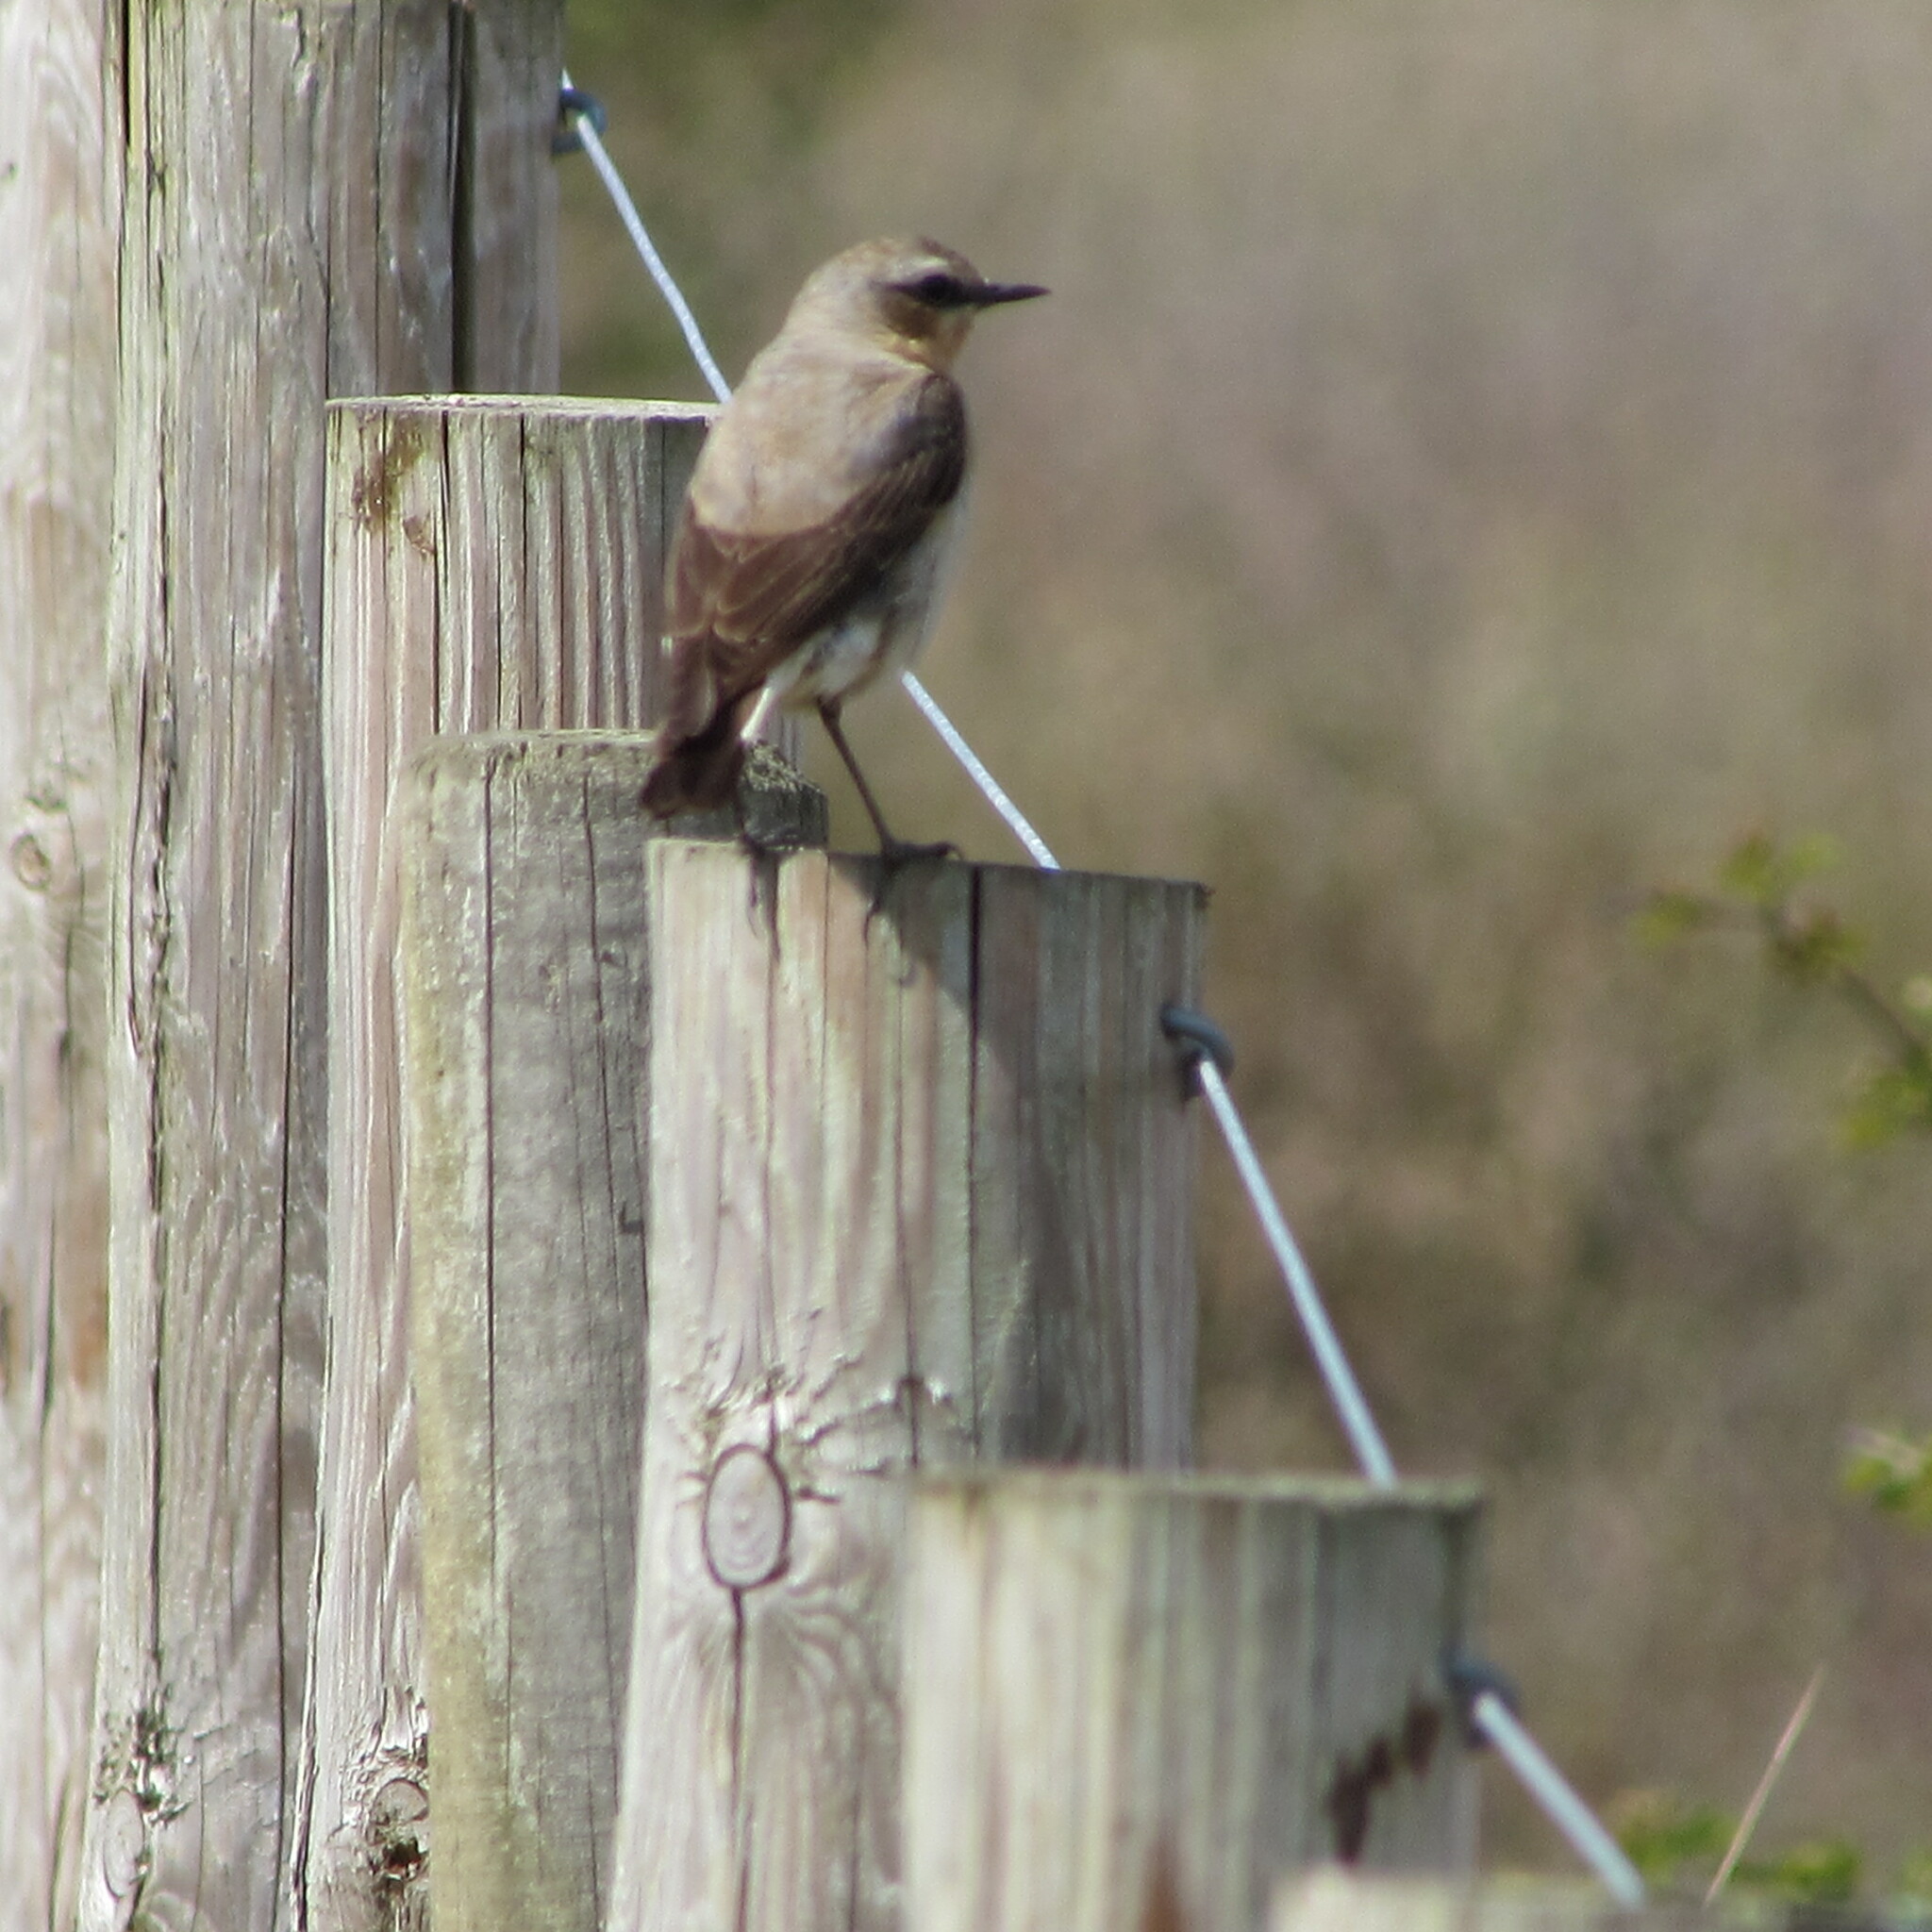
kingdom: Animalia
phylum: Chordata
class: Aves
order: Passeriformes
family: Muscicapidae
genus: Oenanthe
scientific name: Oenanthe oenanthe
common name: Northern wheatear
